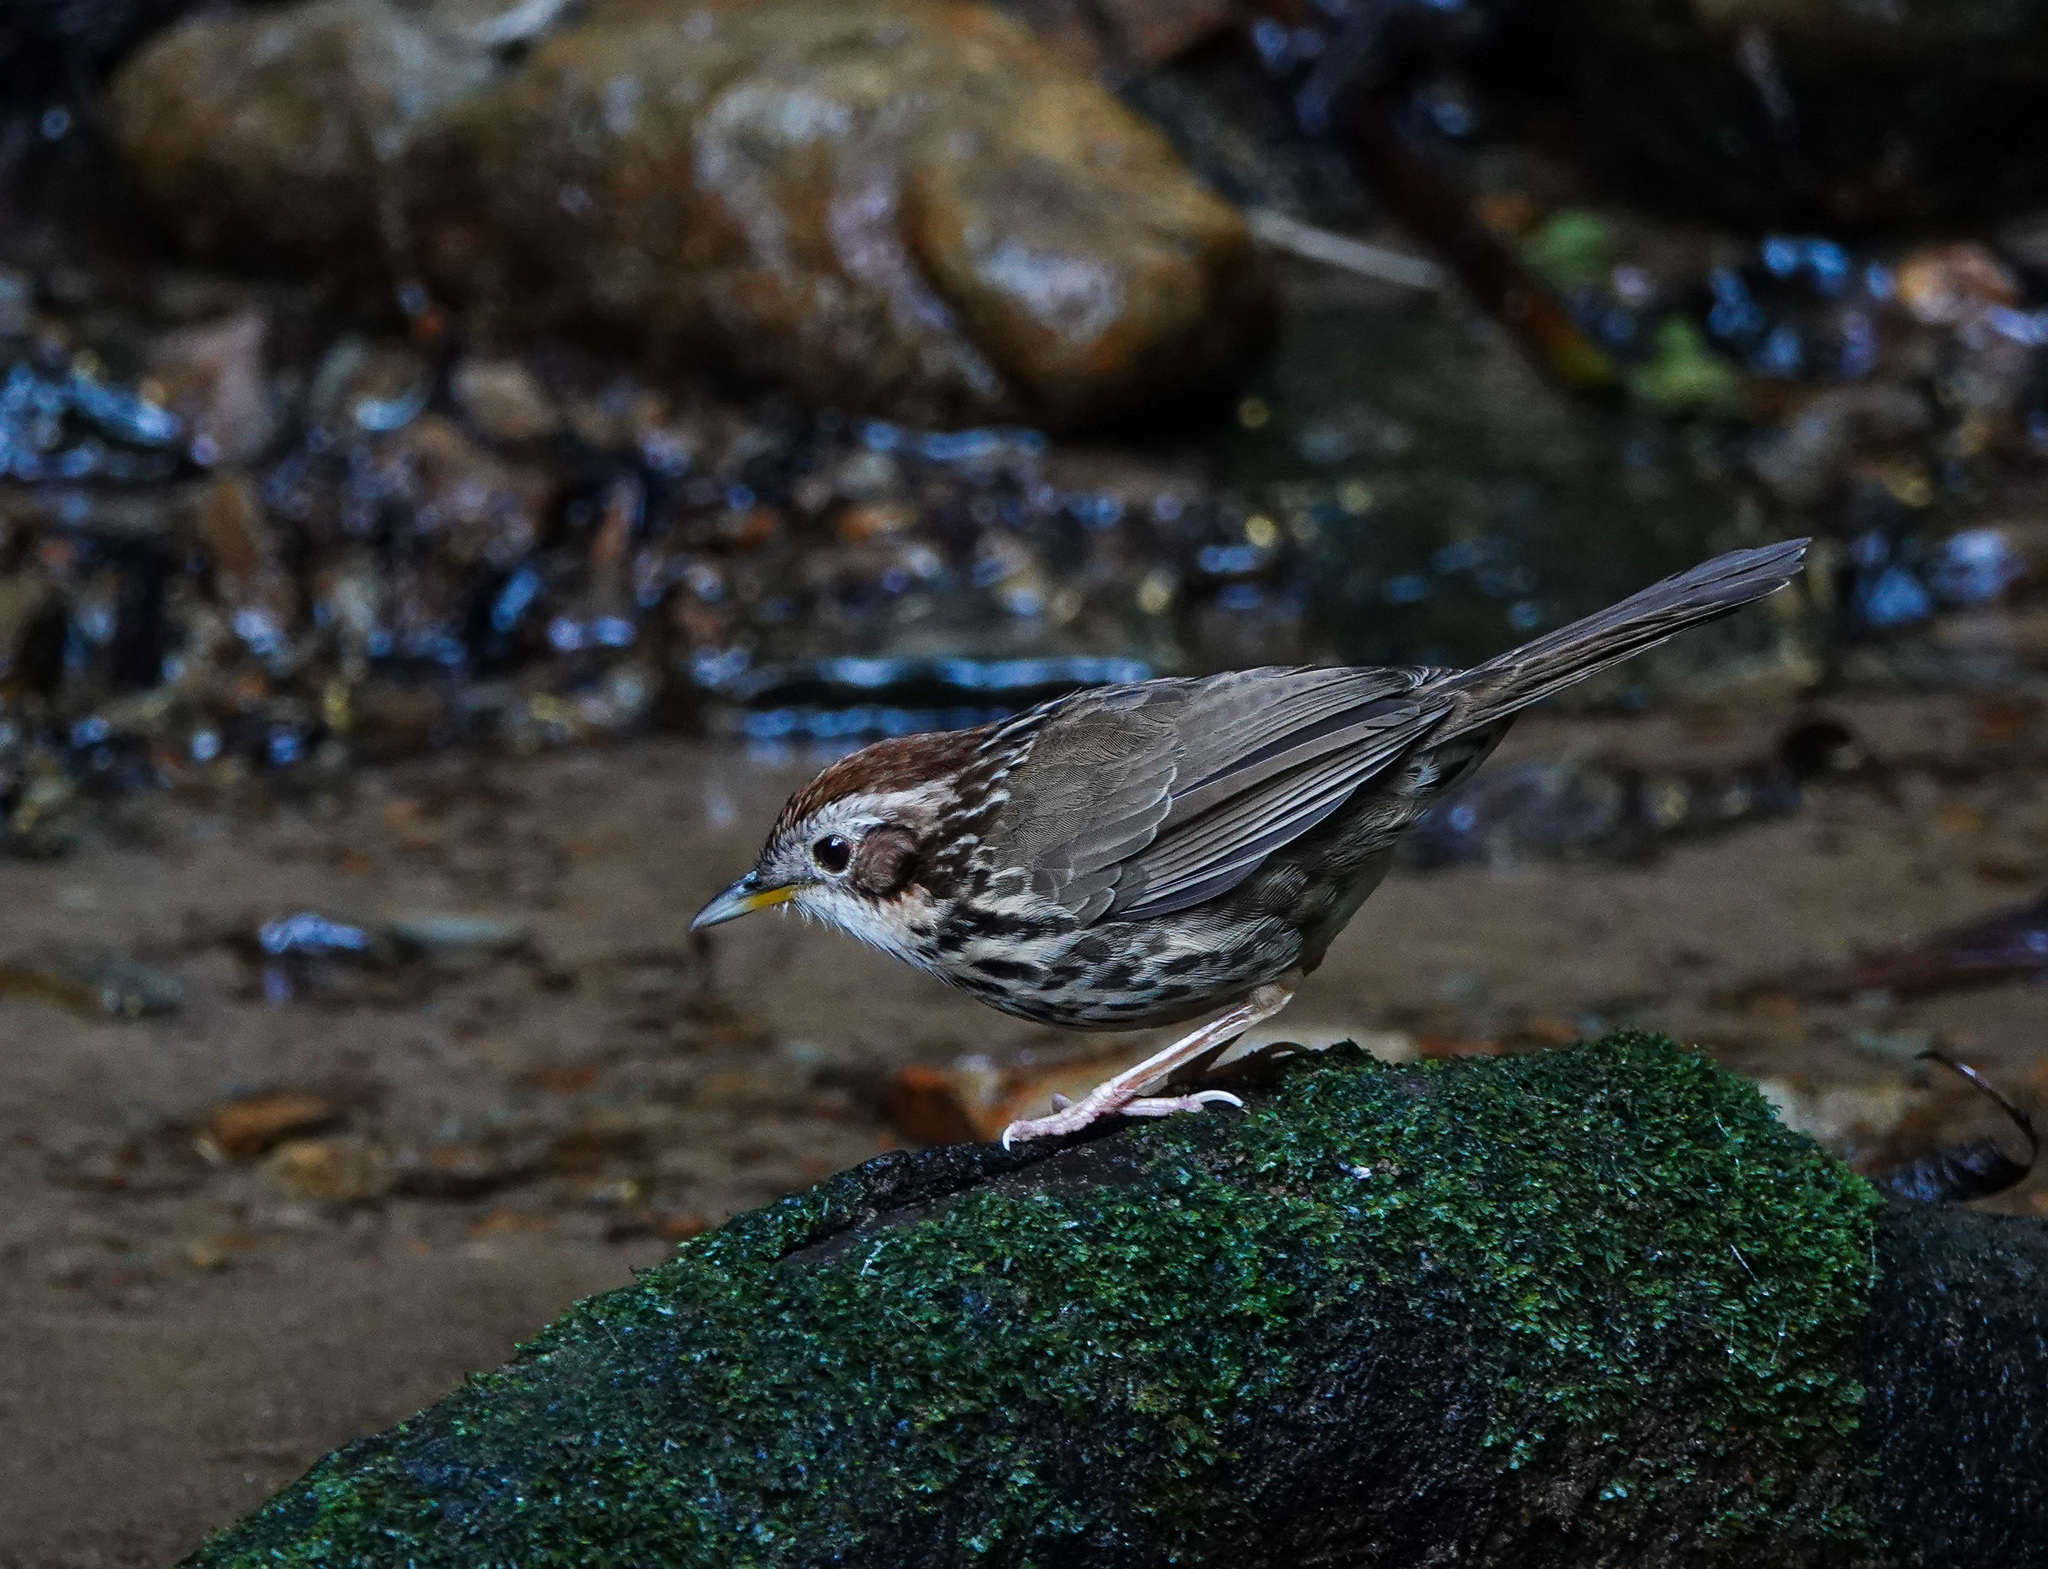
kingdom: Animalia
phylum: Chordata
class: Aves
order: Passeriformes
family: Pellorneidae
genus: Pellorneum
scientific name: Pellorneum ruficeps
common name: Puff-throated babbler
